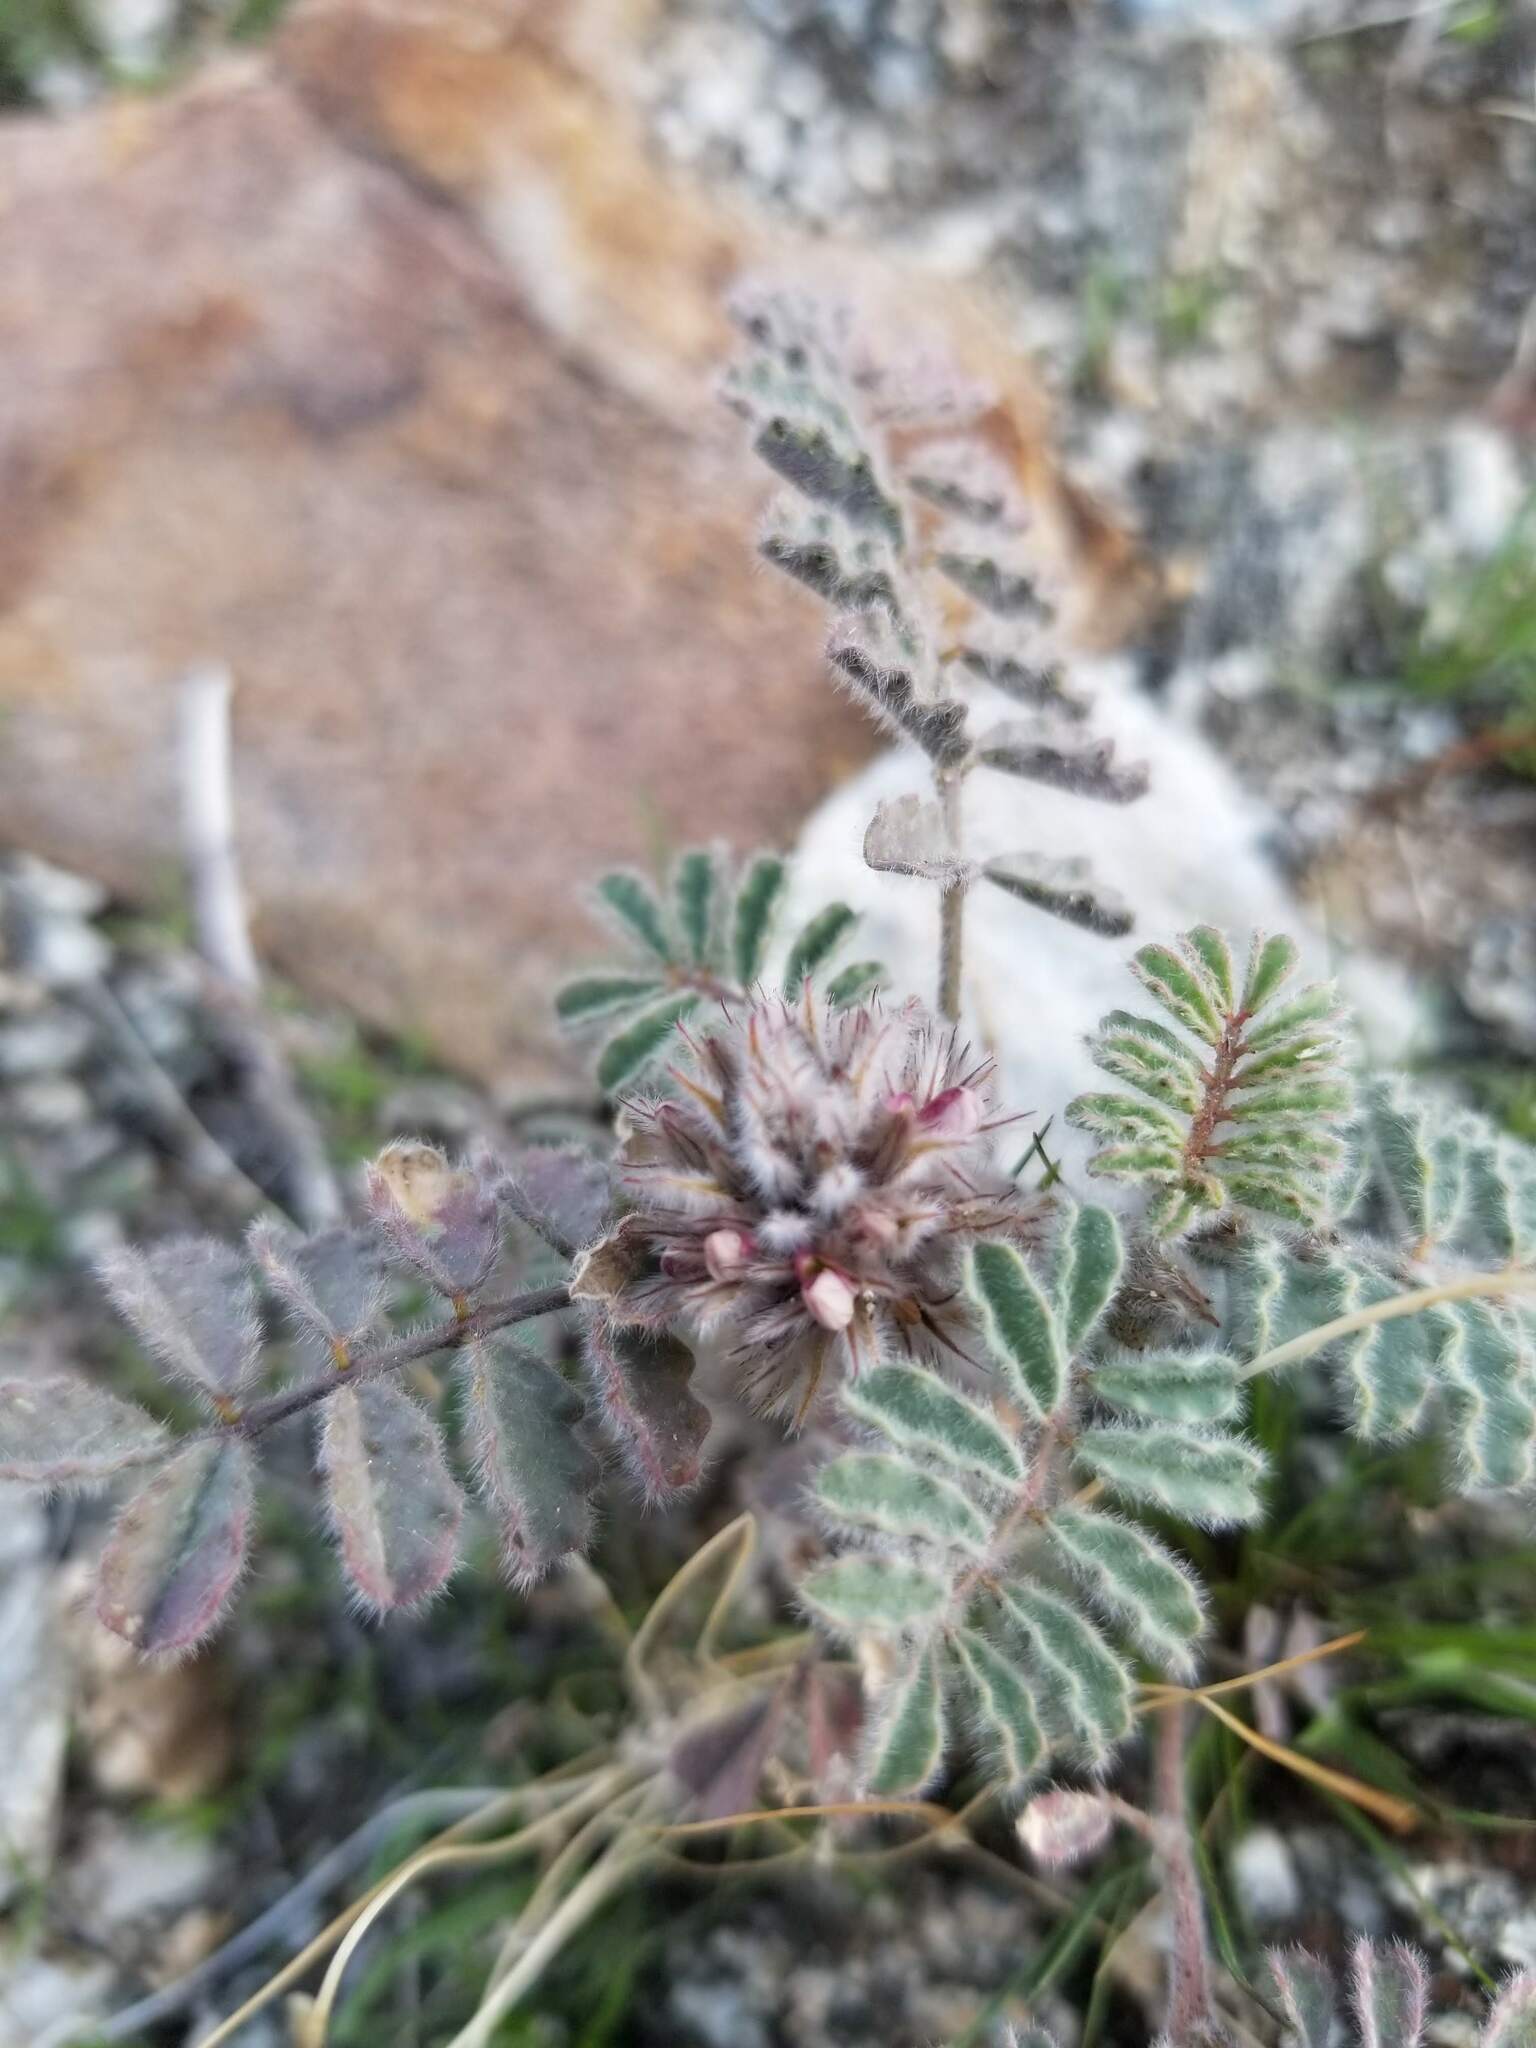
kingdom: Plantae
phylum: Tracheophyta
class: Magnoliopsida
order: Fabales
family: Fabaceae
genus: Dalea
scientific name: Dalea mollissima
